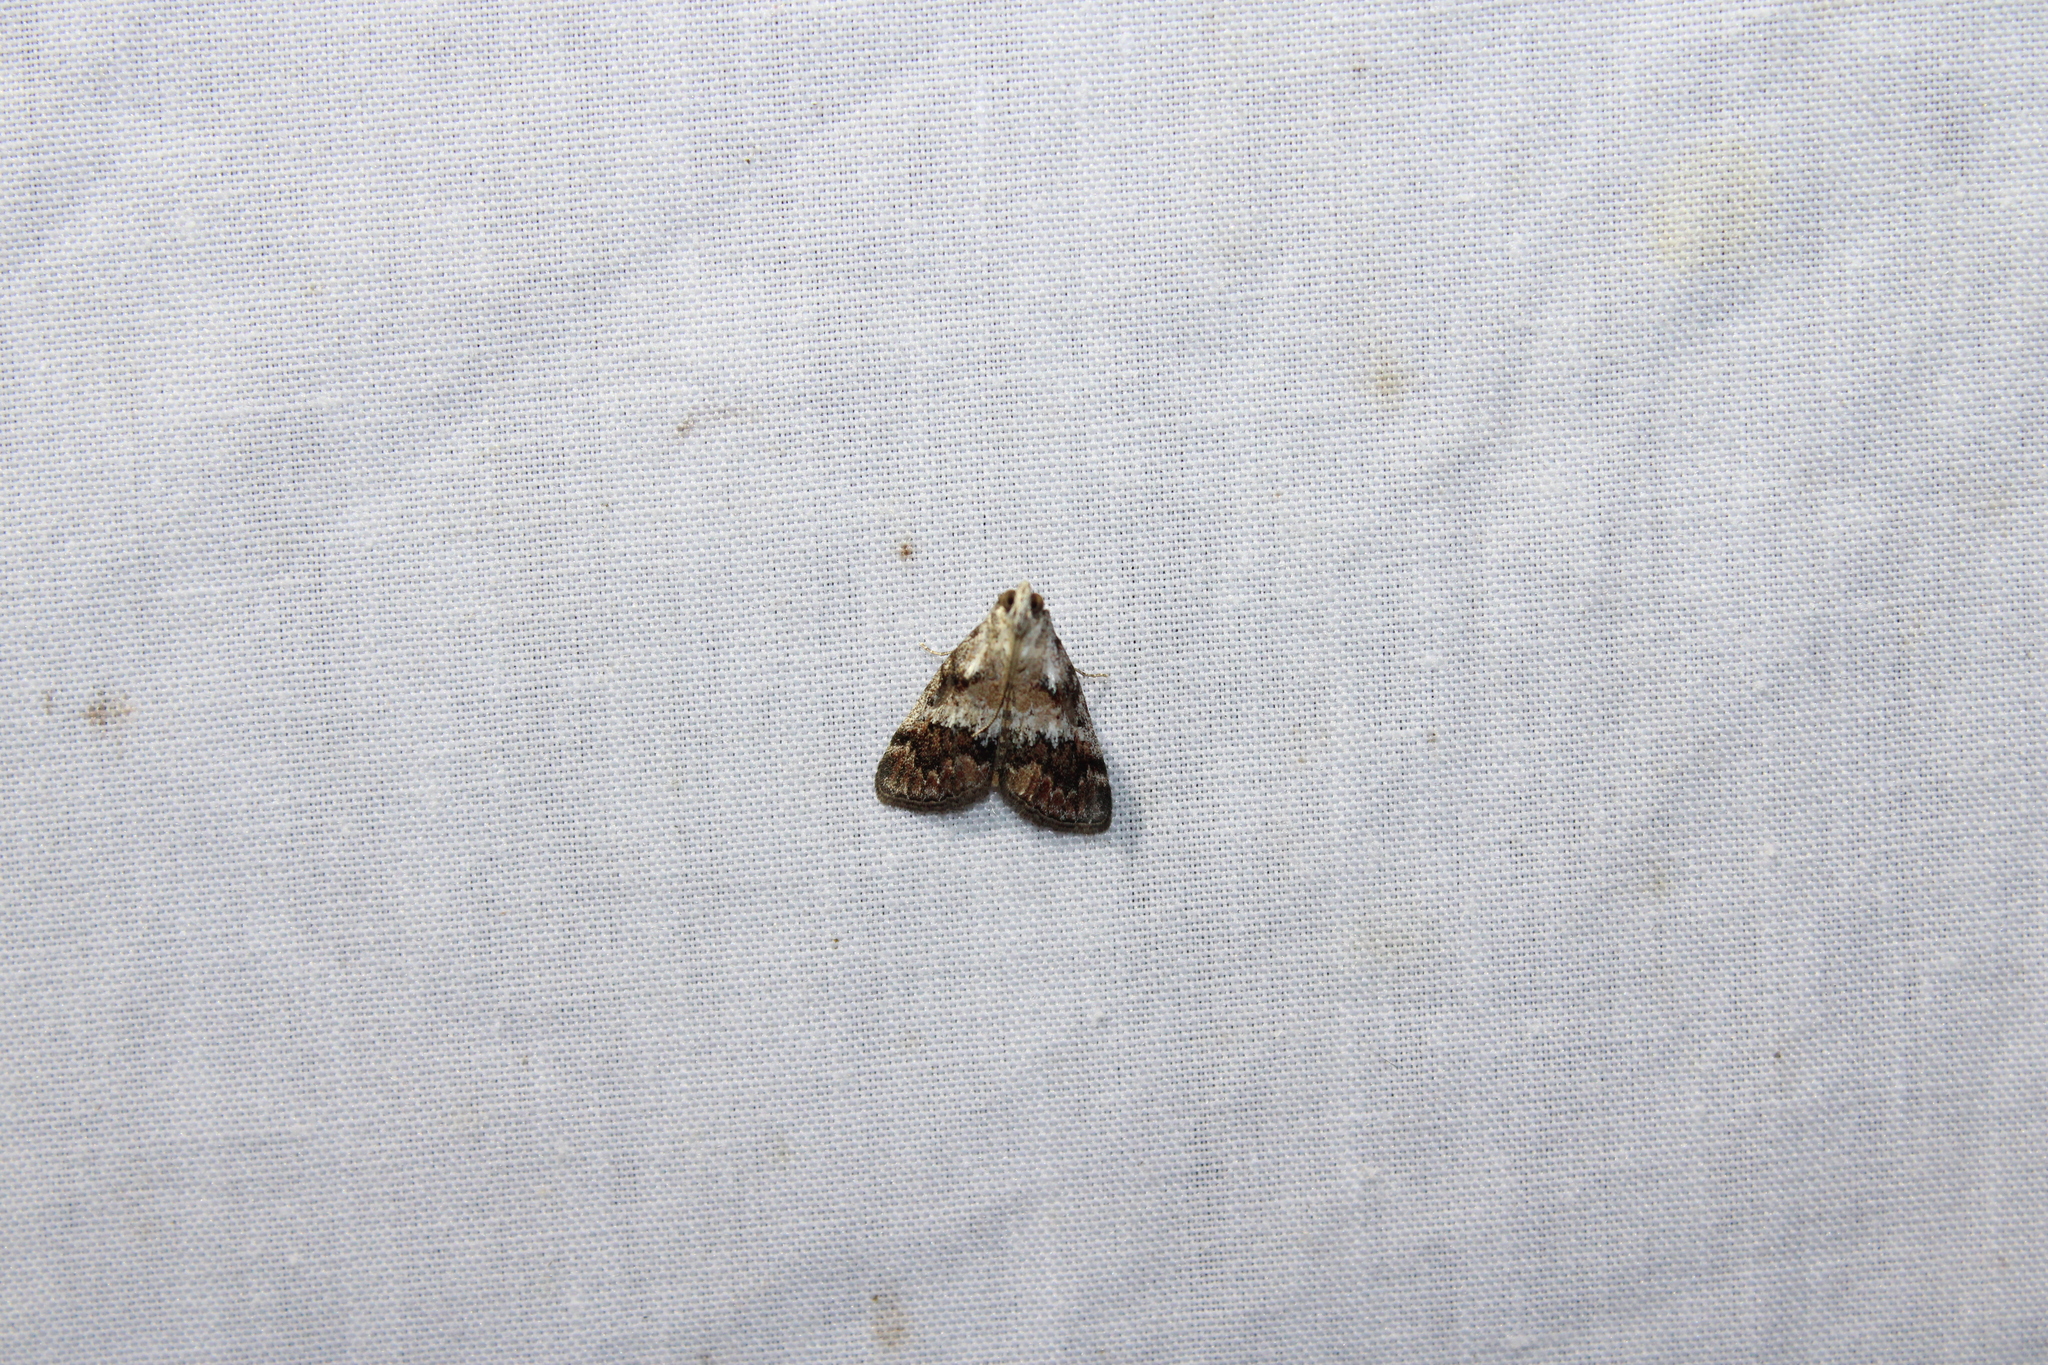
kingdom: Animalia
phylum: Arthropoda
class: Insecta
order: Lepidoptera
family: Pyralidae
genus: Pococera
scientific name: Pococera baptisiella
